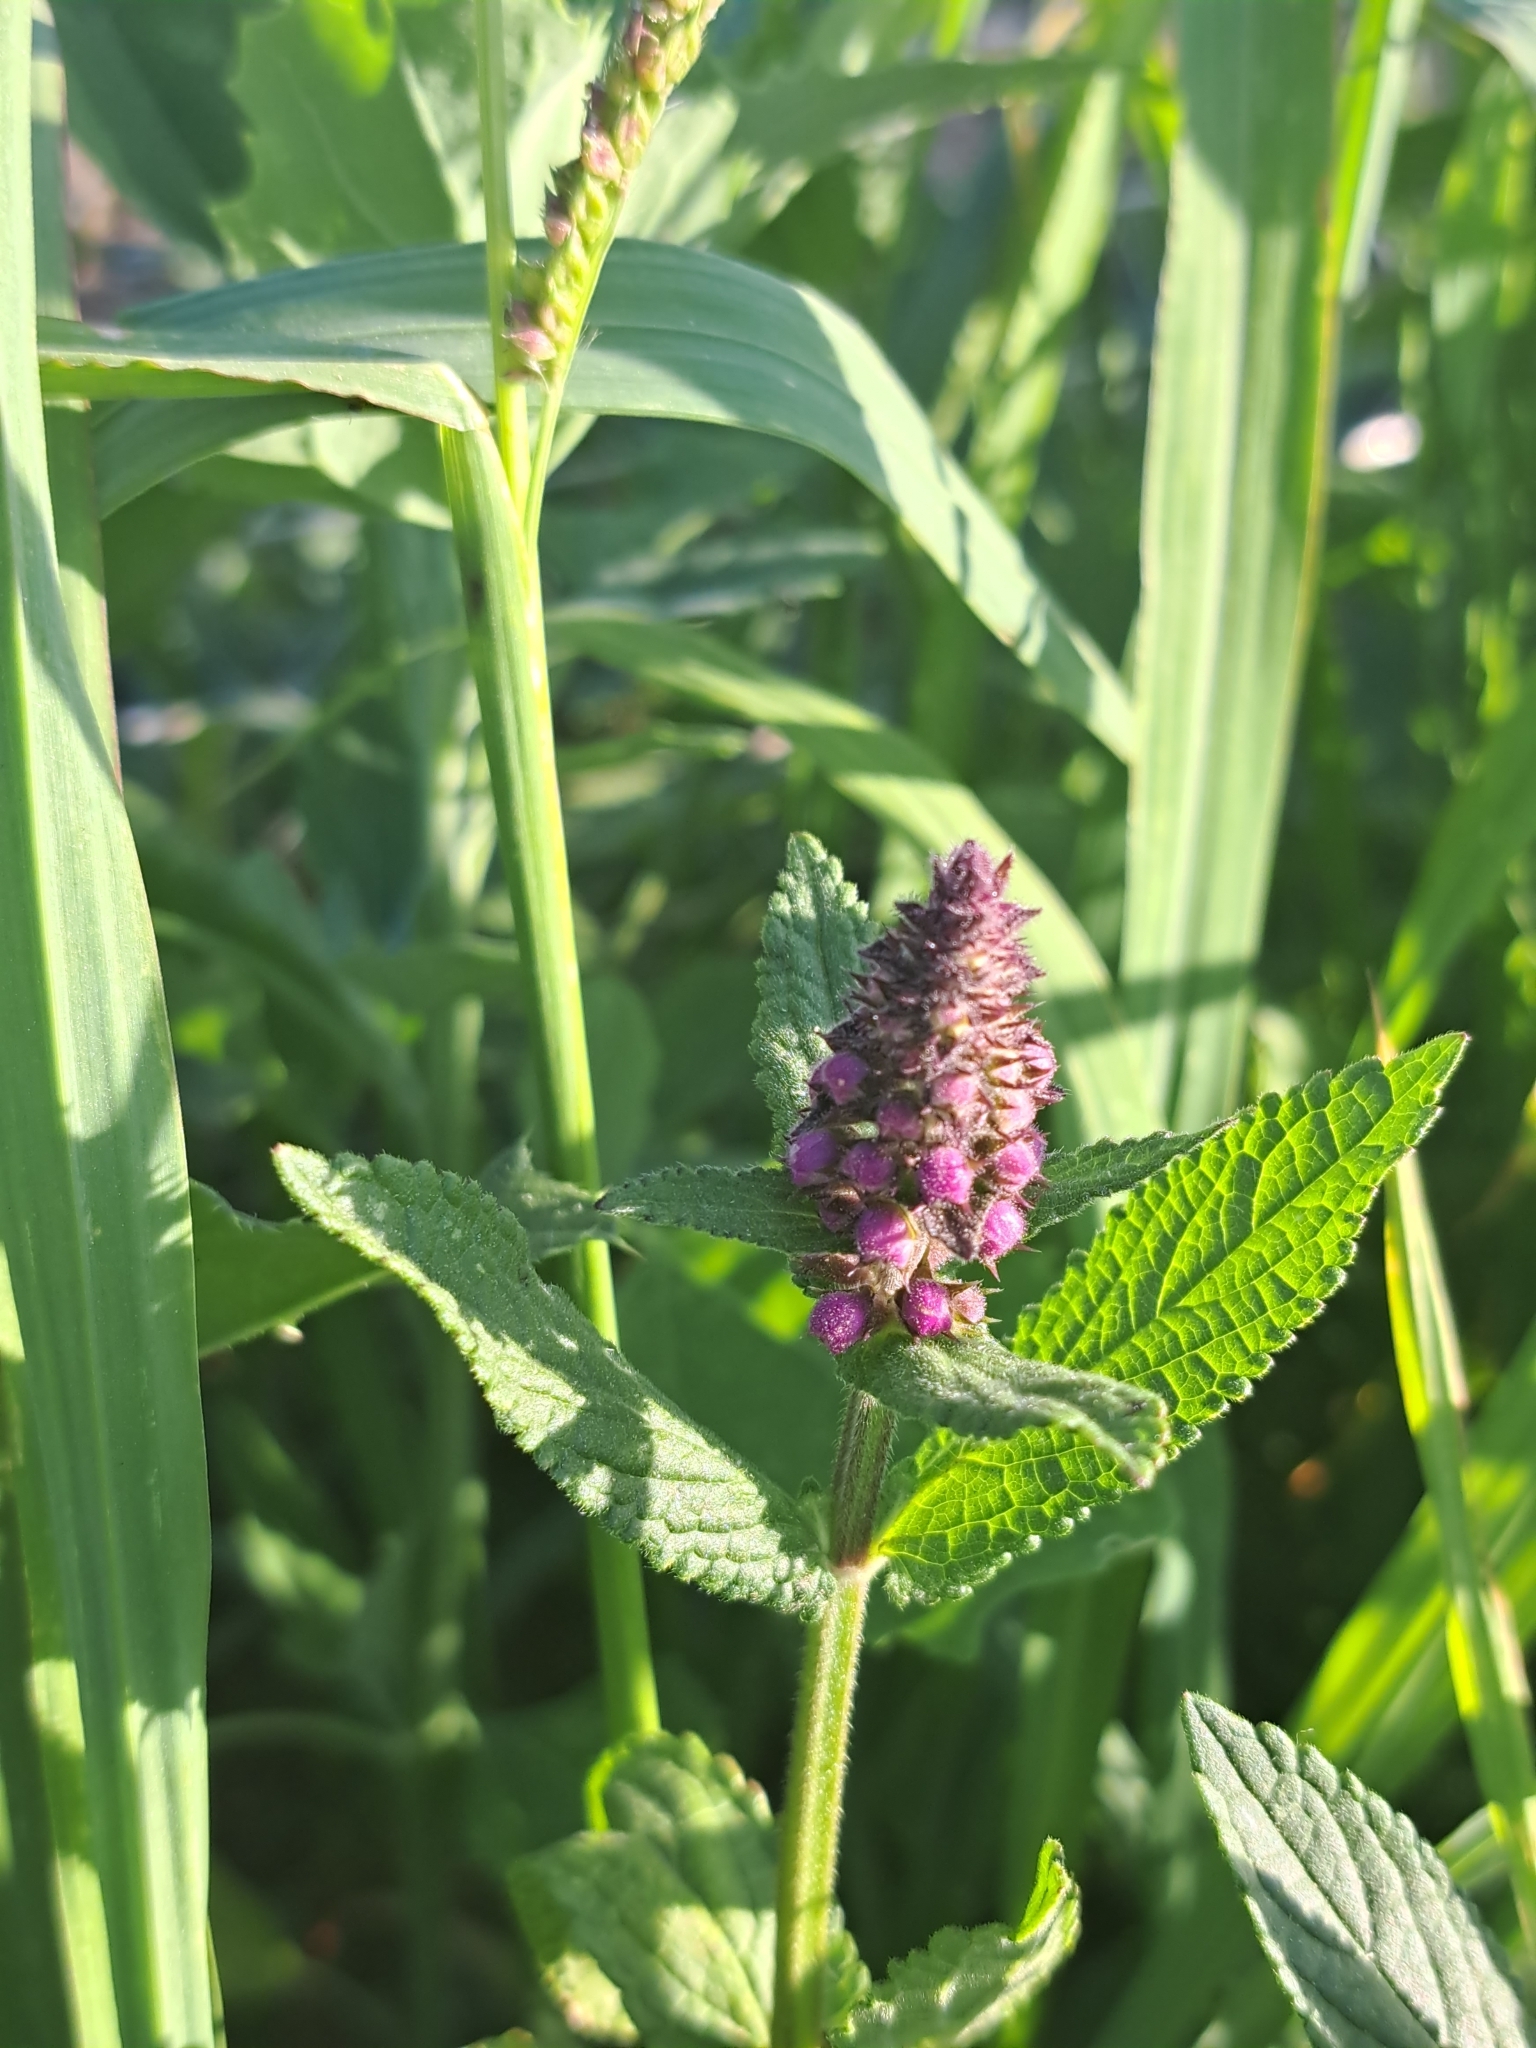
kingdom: Plantae
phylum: Tracheophyta
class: Magnoliopsida
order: Lamiales
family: Lamiaceae
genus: Stachys
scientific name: Stachys palustris
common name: Marsh woundwort
